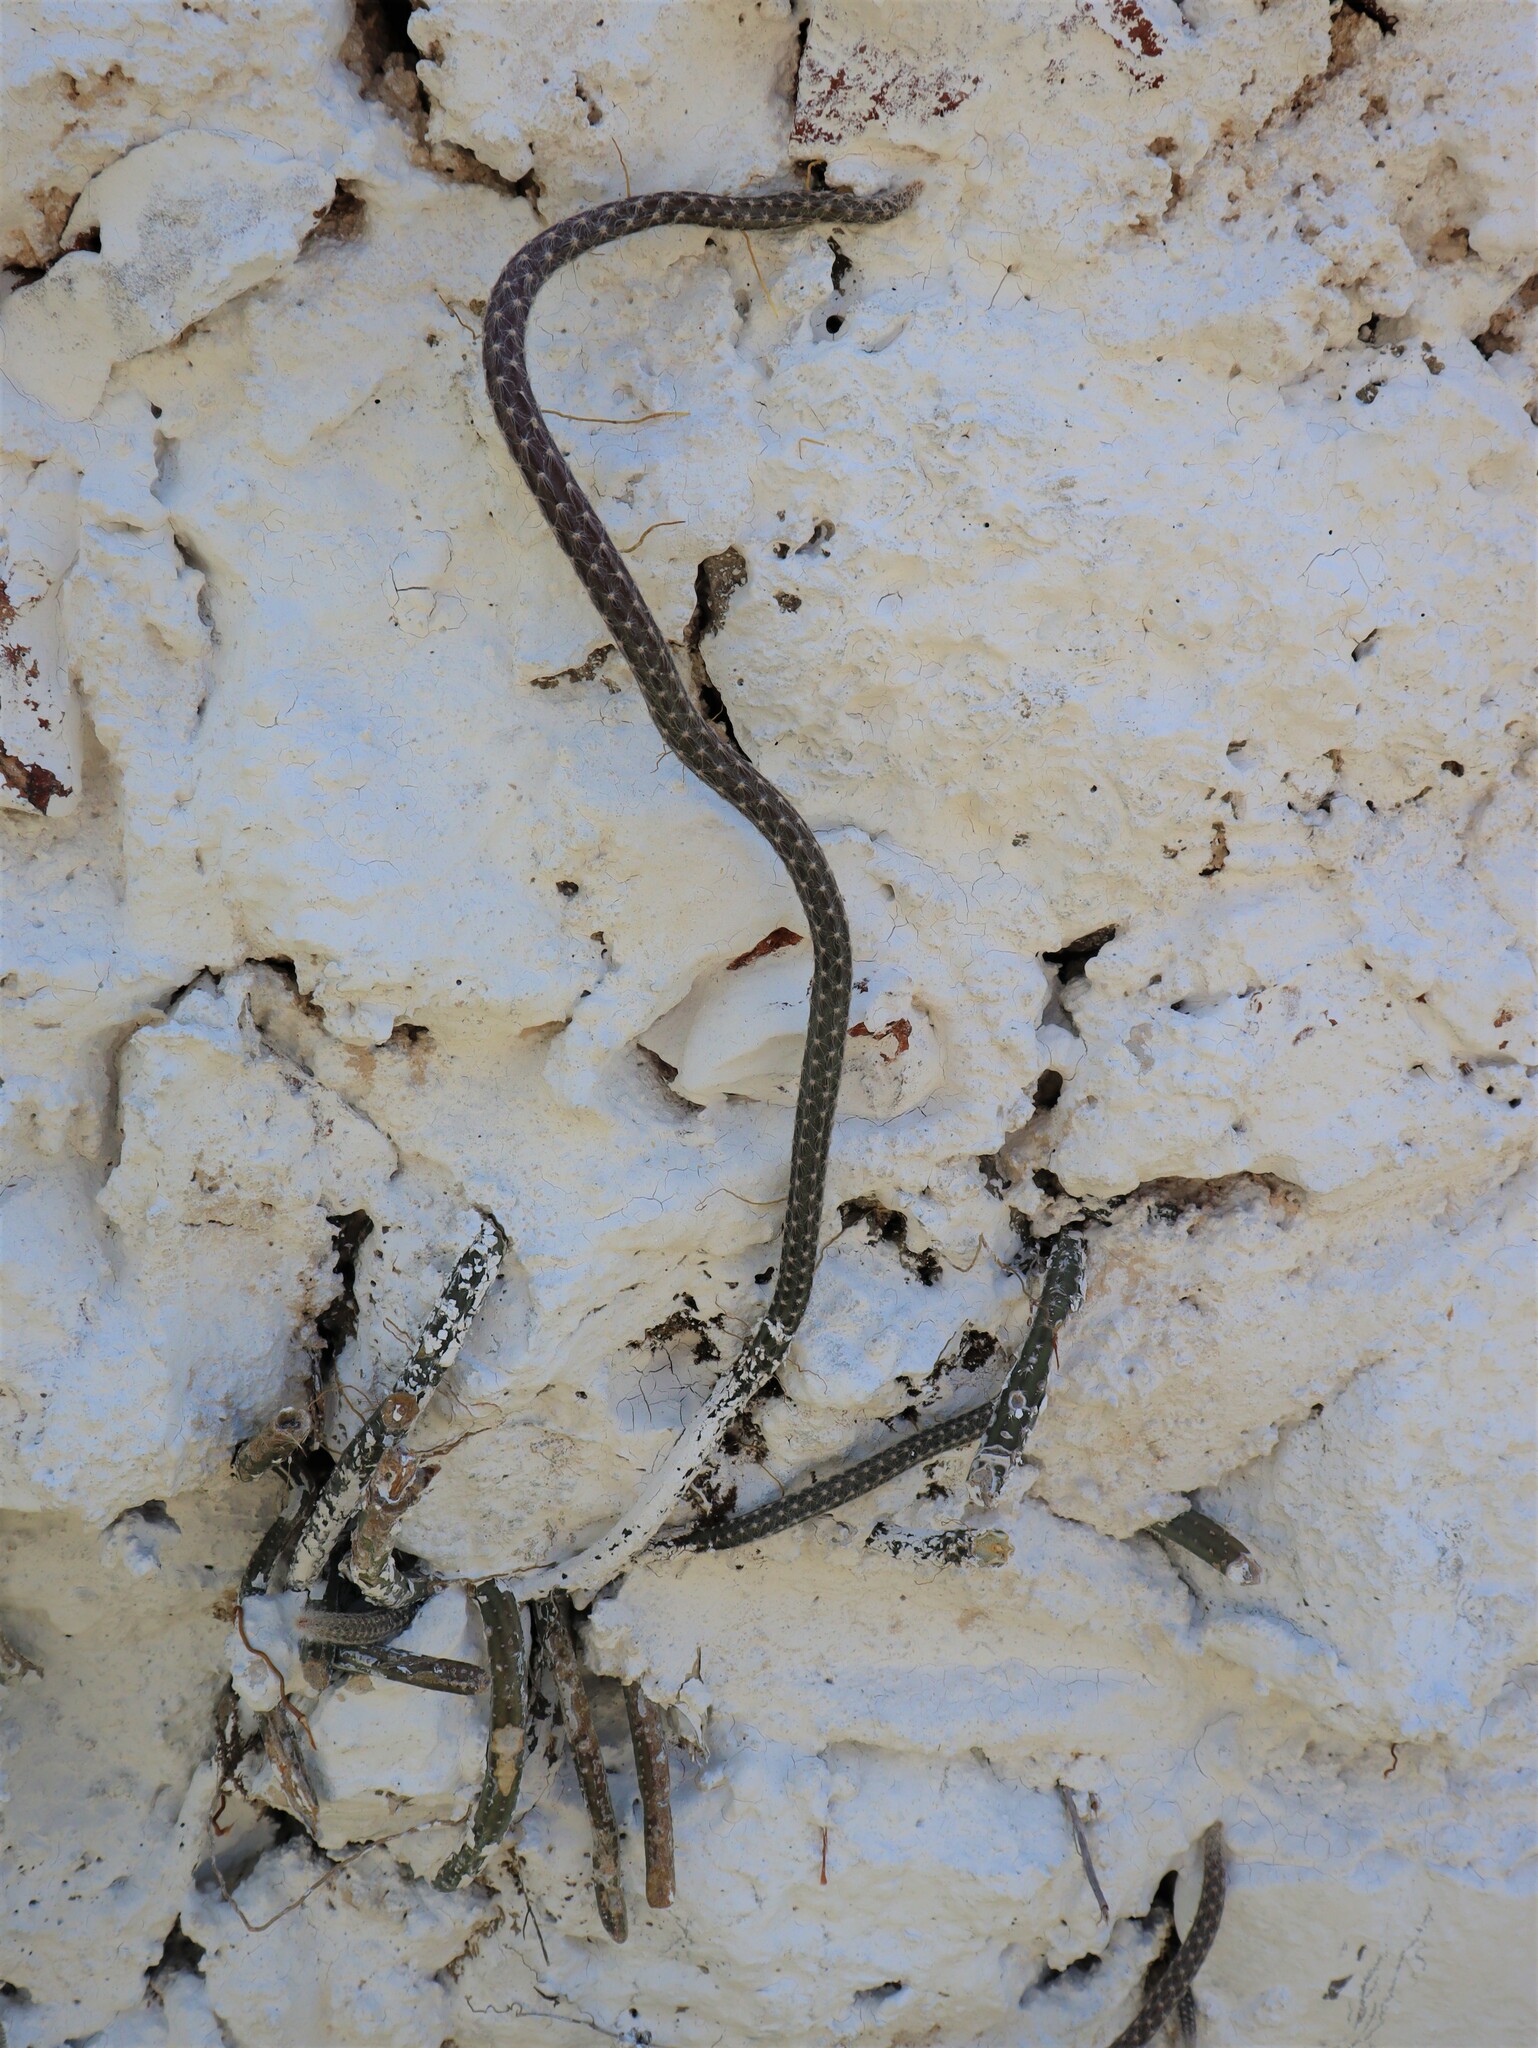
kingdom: Plantae
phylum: Tracheophyta
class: Magnoliopsida
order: Caryophyllales
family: Cactaceae
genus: Selenicereus
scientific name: Selenicereus grandiflorus
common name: Queen of the night
